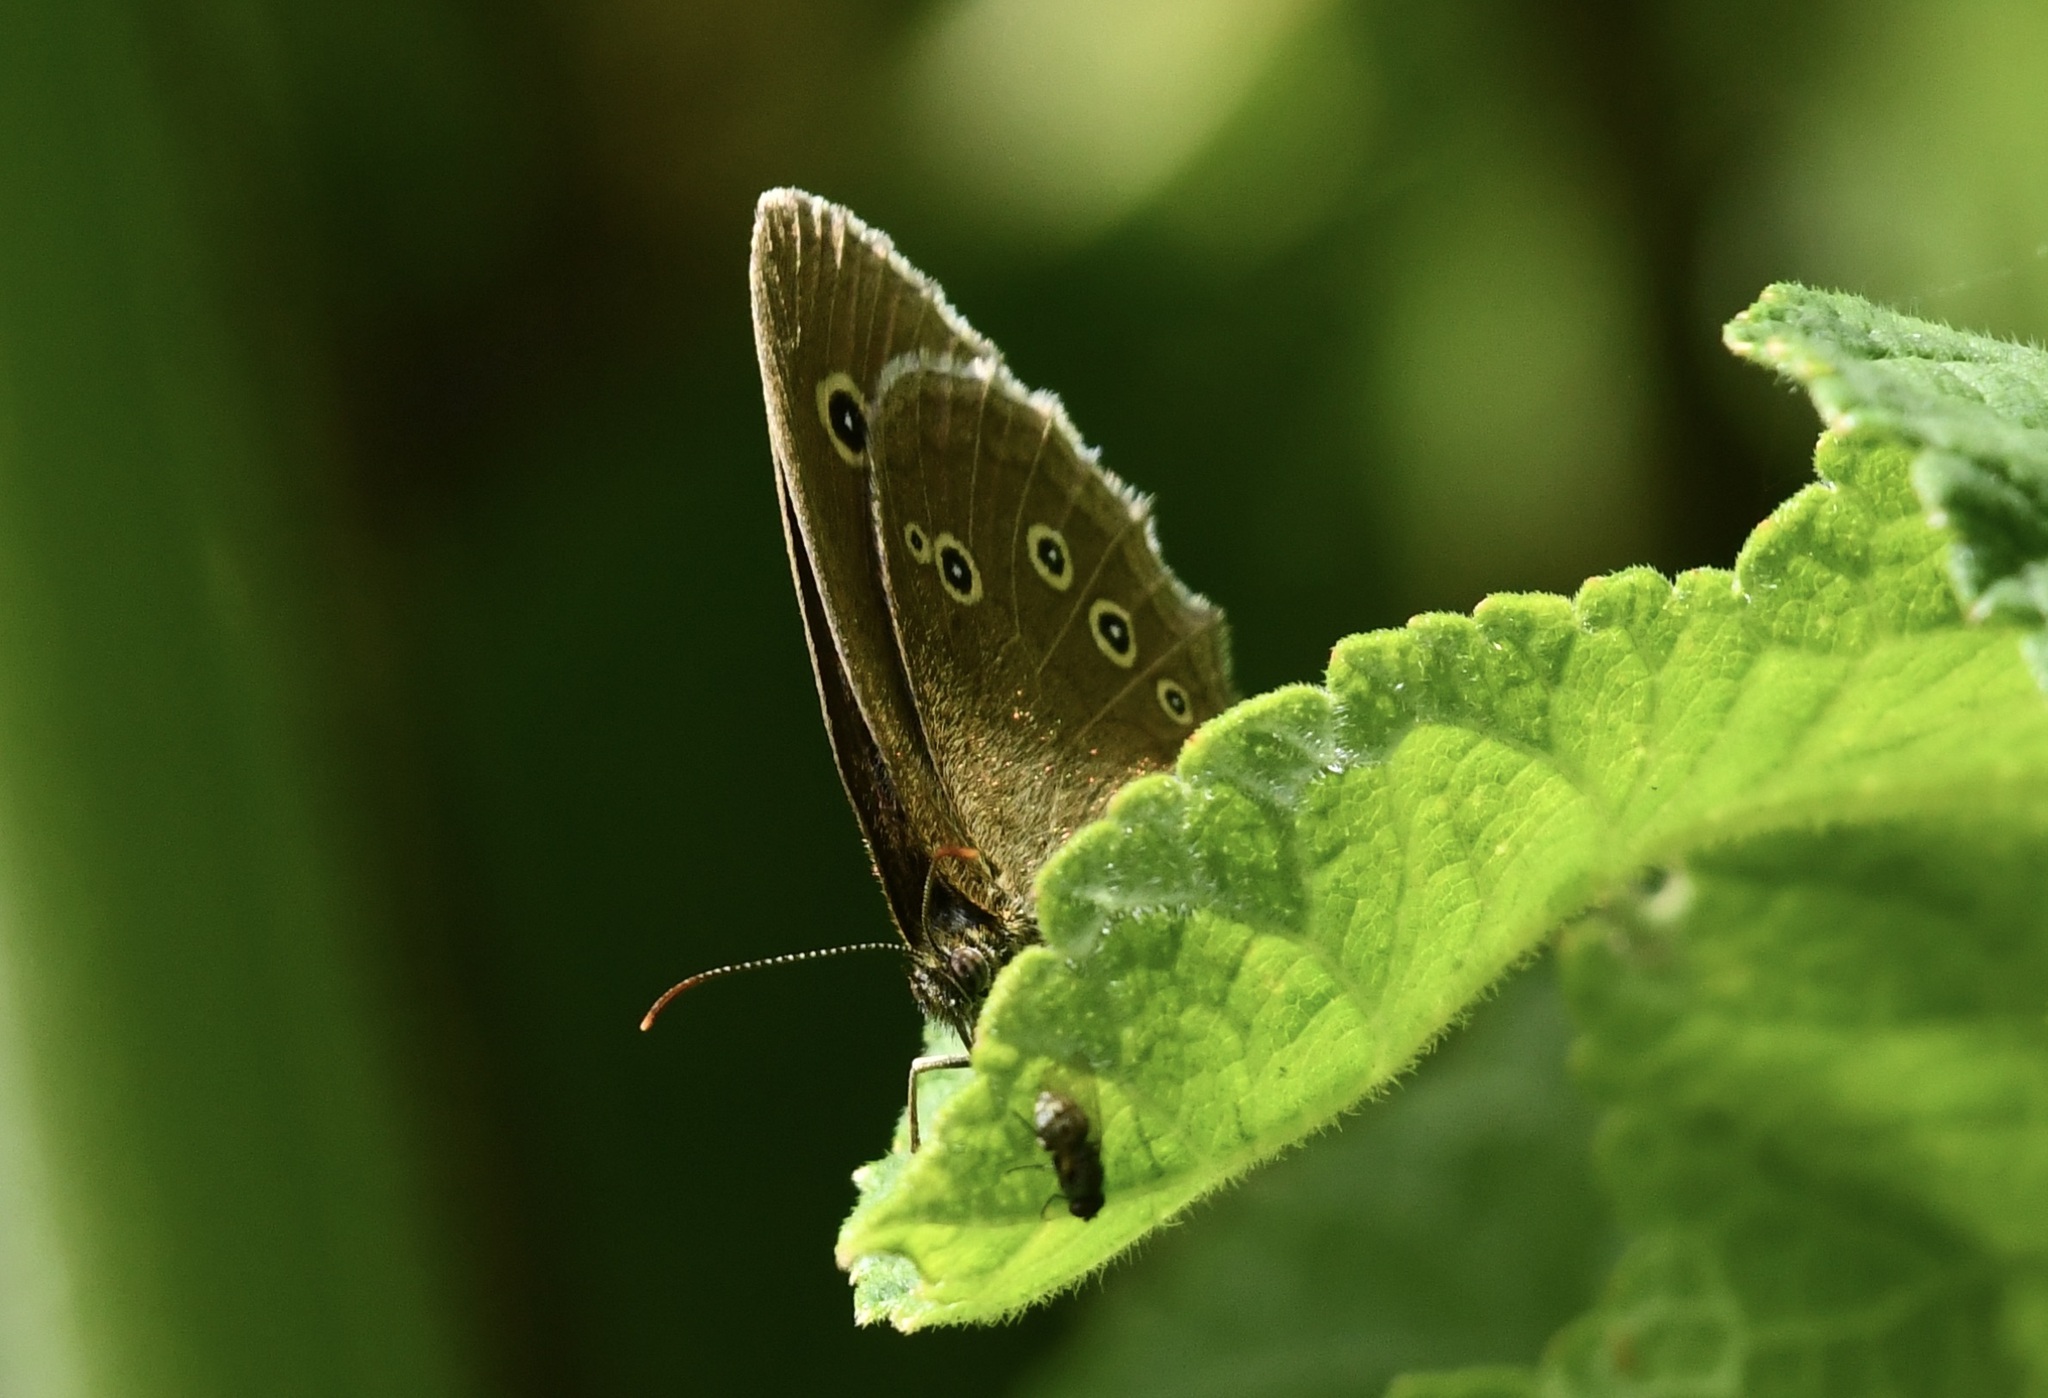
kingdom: Animalia
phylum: Arthropoda
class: Insecta
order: Lepidoptera
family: Nymphalidae
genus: Aphantopus
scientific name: Aphantopus hyperantus
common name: Ringlet
